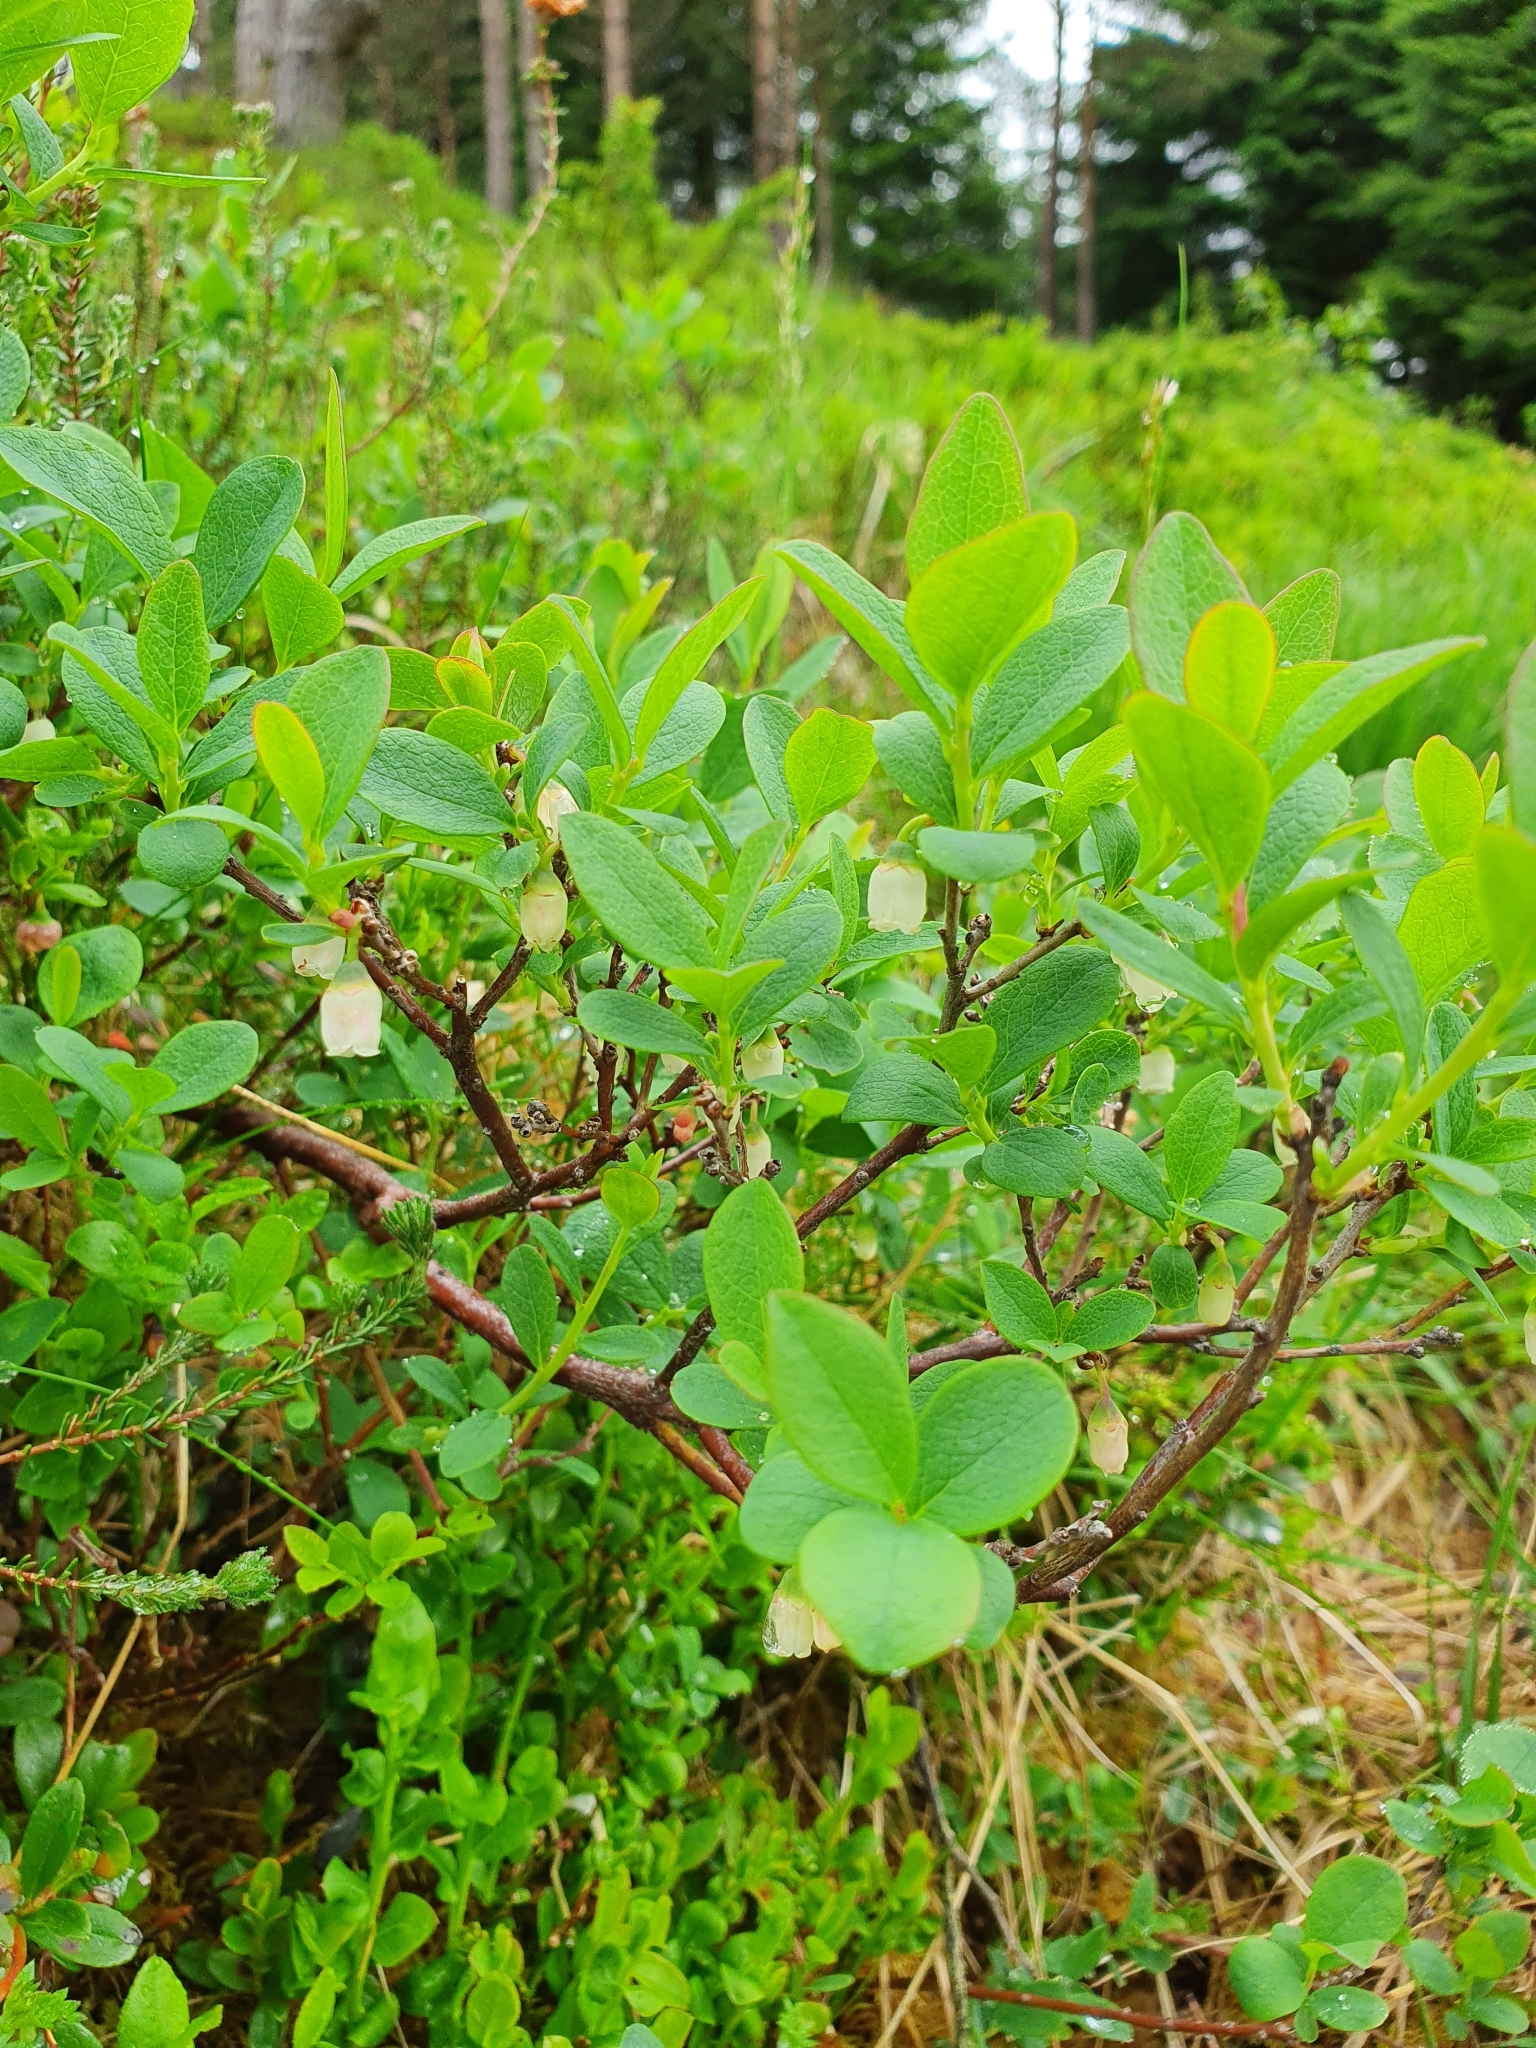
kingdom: Plantae
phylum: Tracheophyta
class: Magnoliopsida
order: Ericales
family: Ericaceae
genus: Vaccinium
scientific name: Vaccinium uliginosum
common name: Bog bilberry
